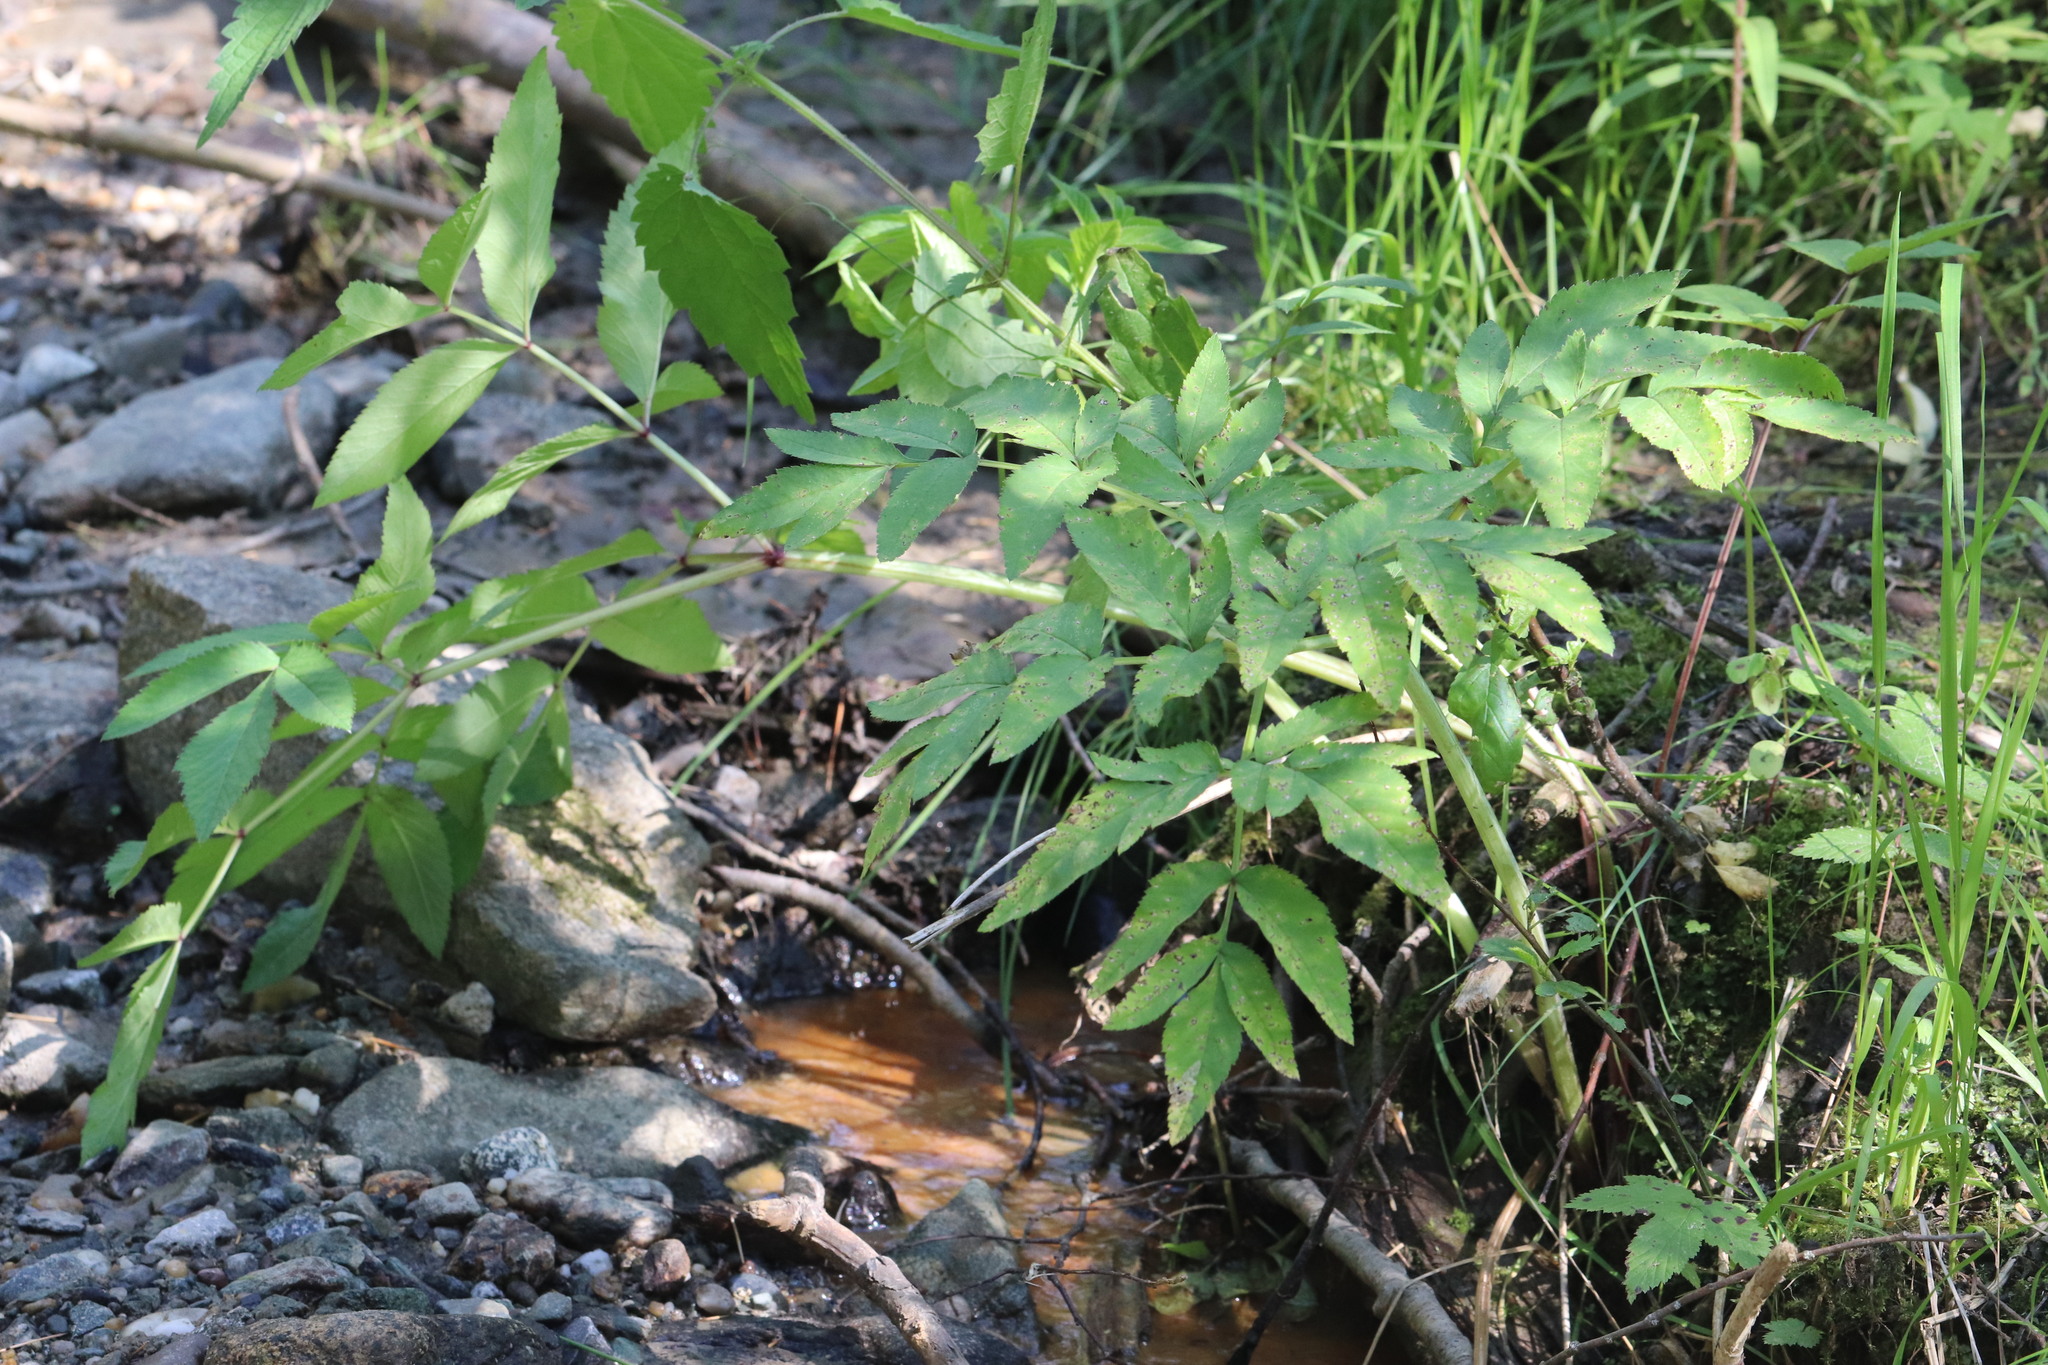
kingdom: Plantae
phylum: Tracheophyta
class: Magnoliopsida
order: Apiales
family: Apiaceae
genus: Angelica
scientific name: Angelica sylvestris
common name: Wild angelica
